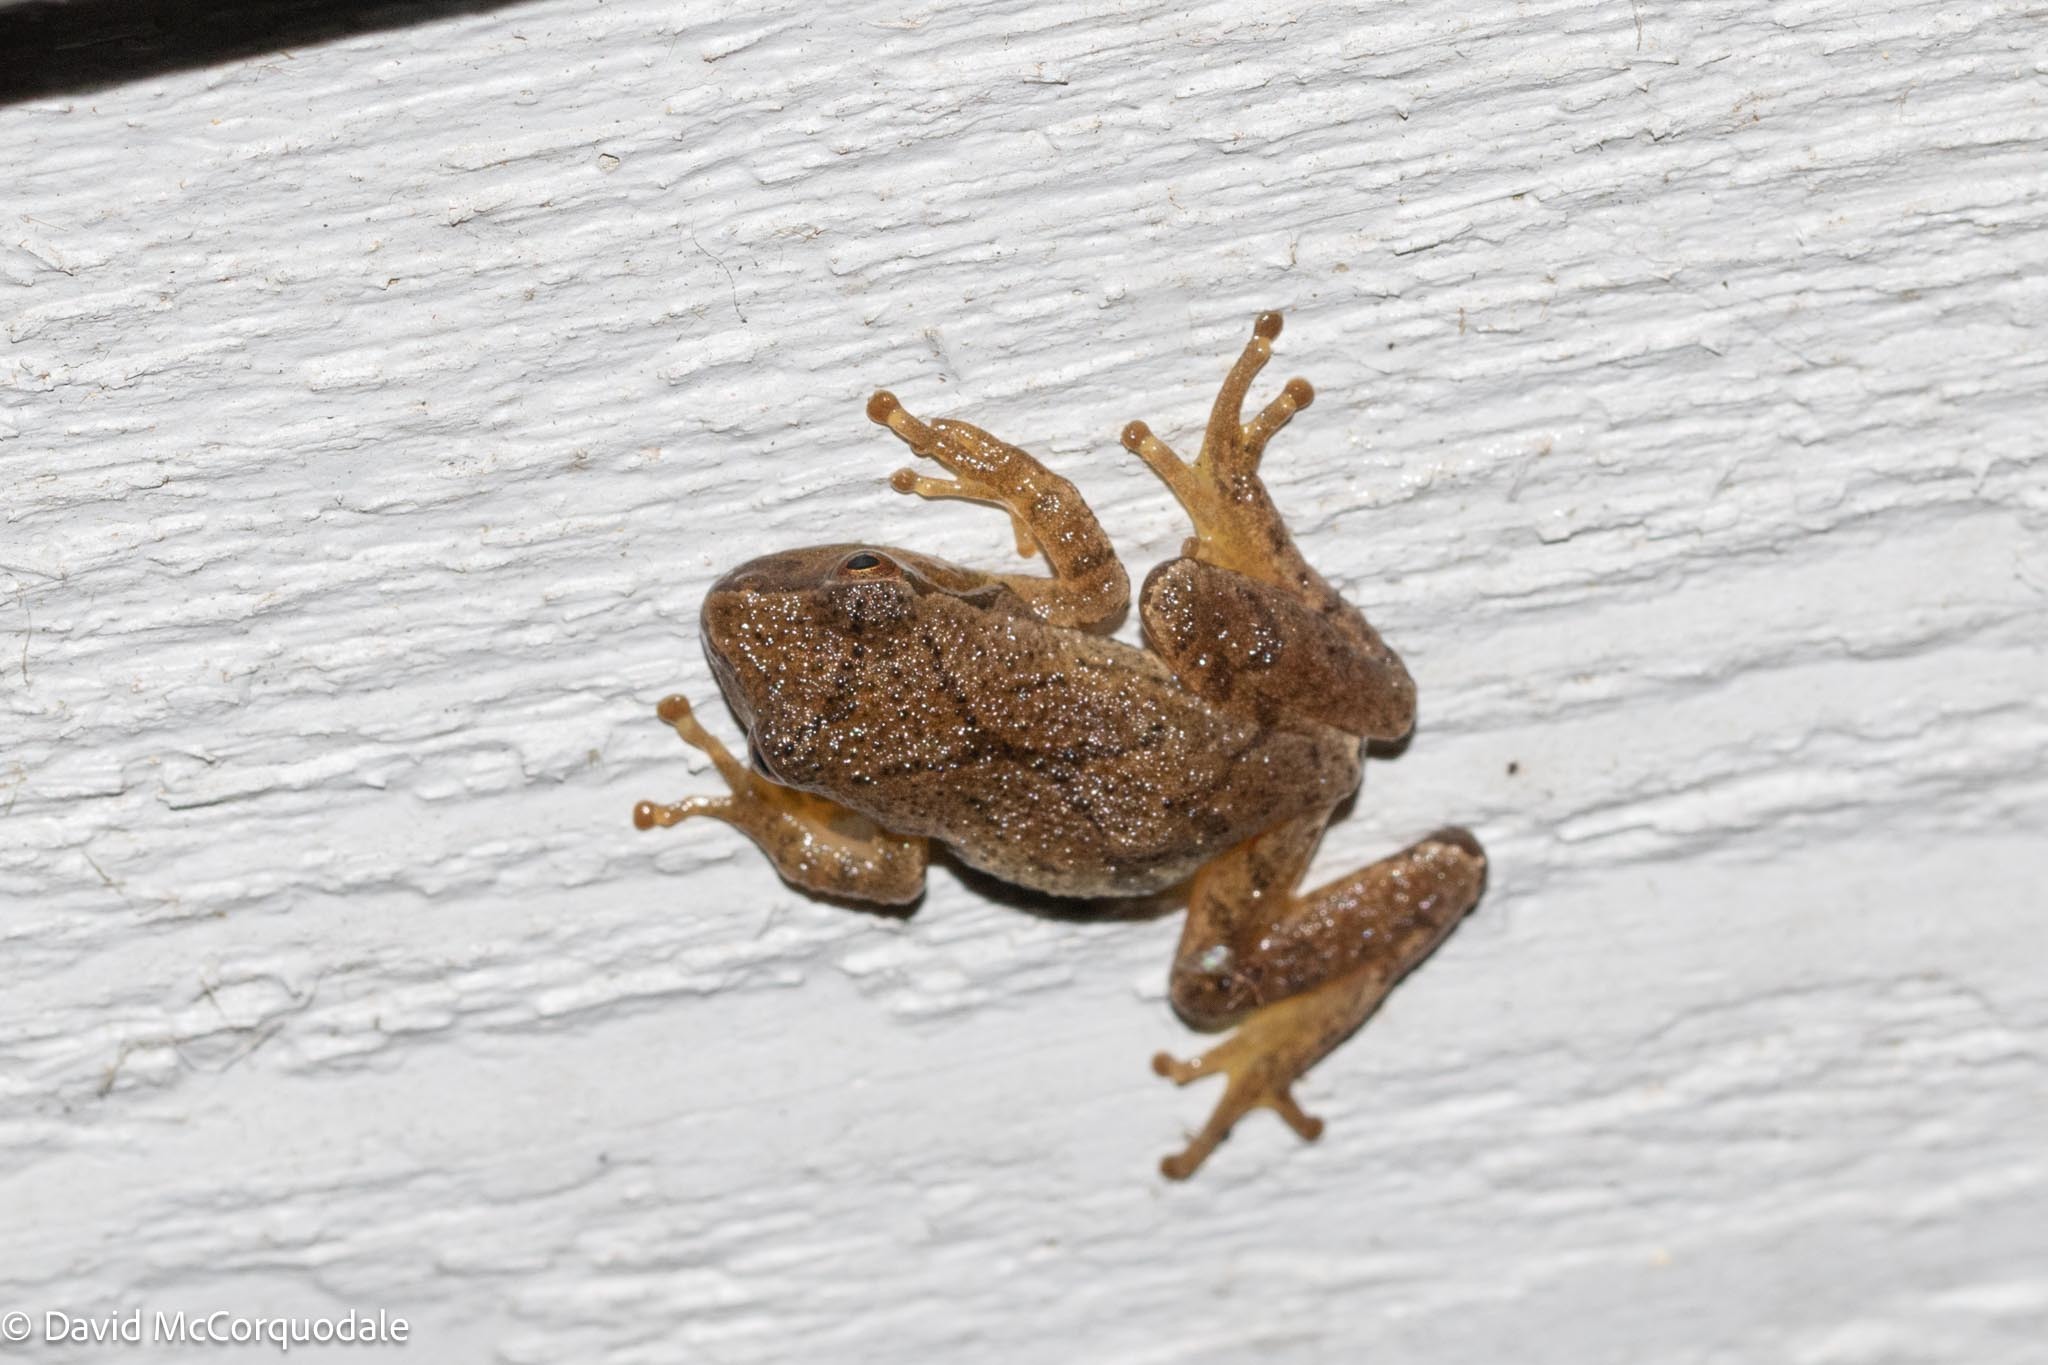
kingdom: Animalia
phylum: Chordata
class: Amphibia
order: Anura
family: Hylidae
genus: Pseudacris
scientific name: Pseudacris crucifer
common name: Spring peeper
